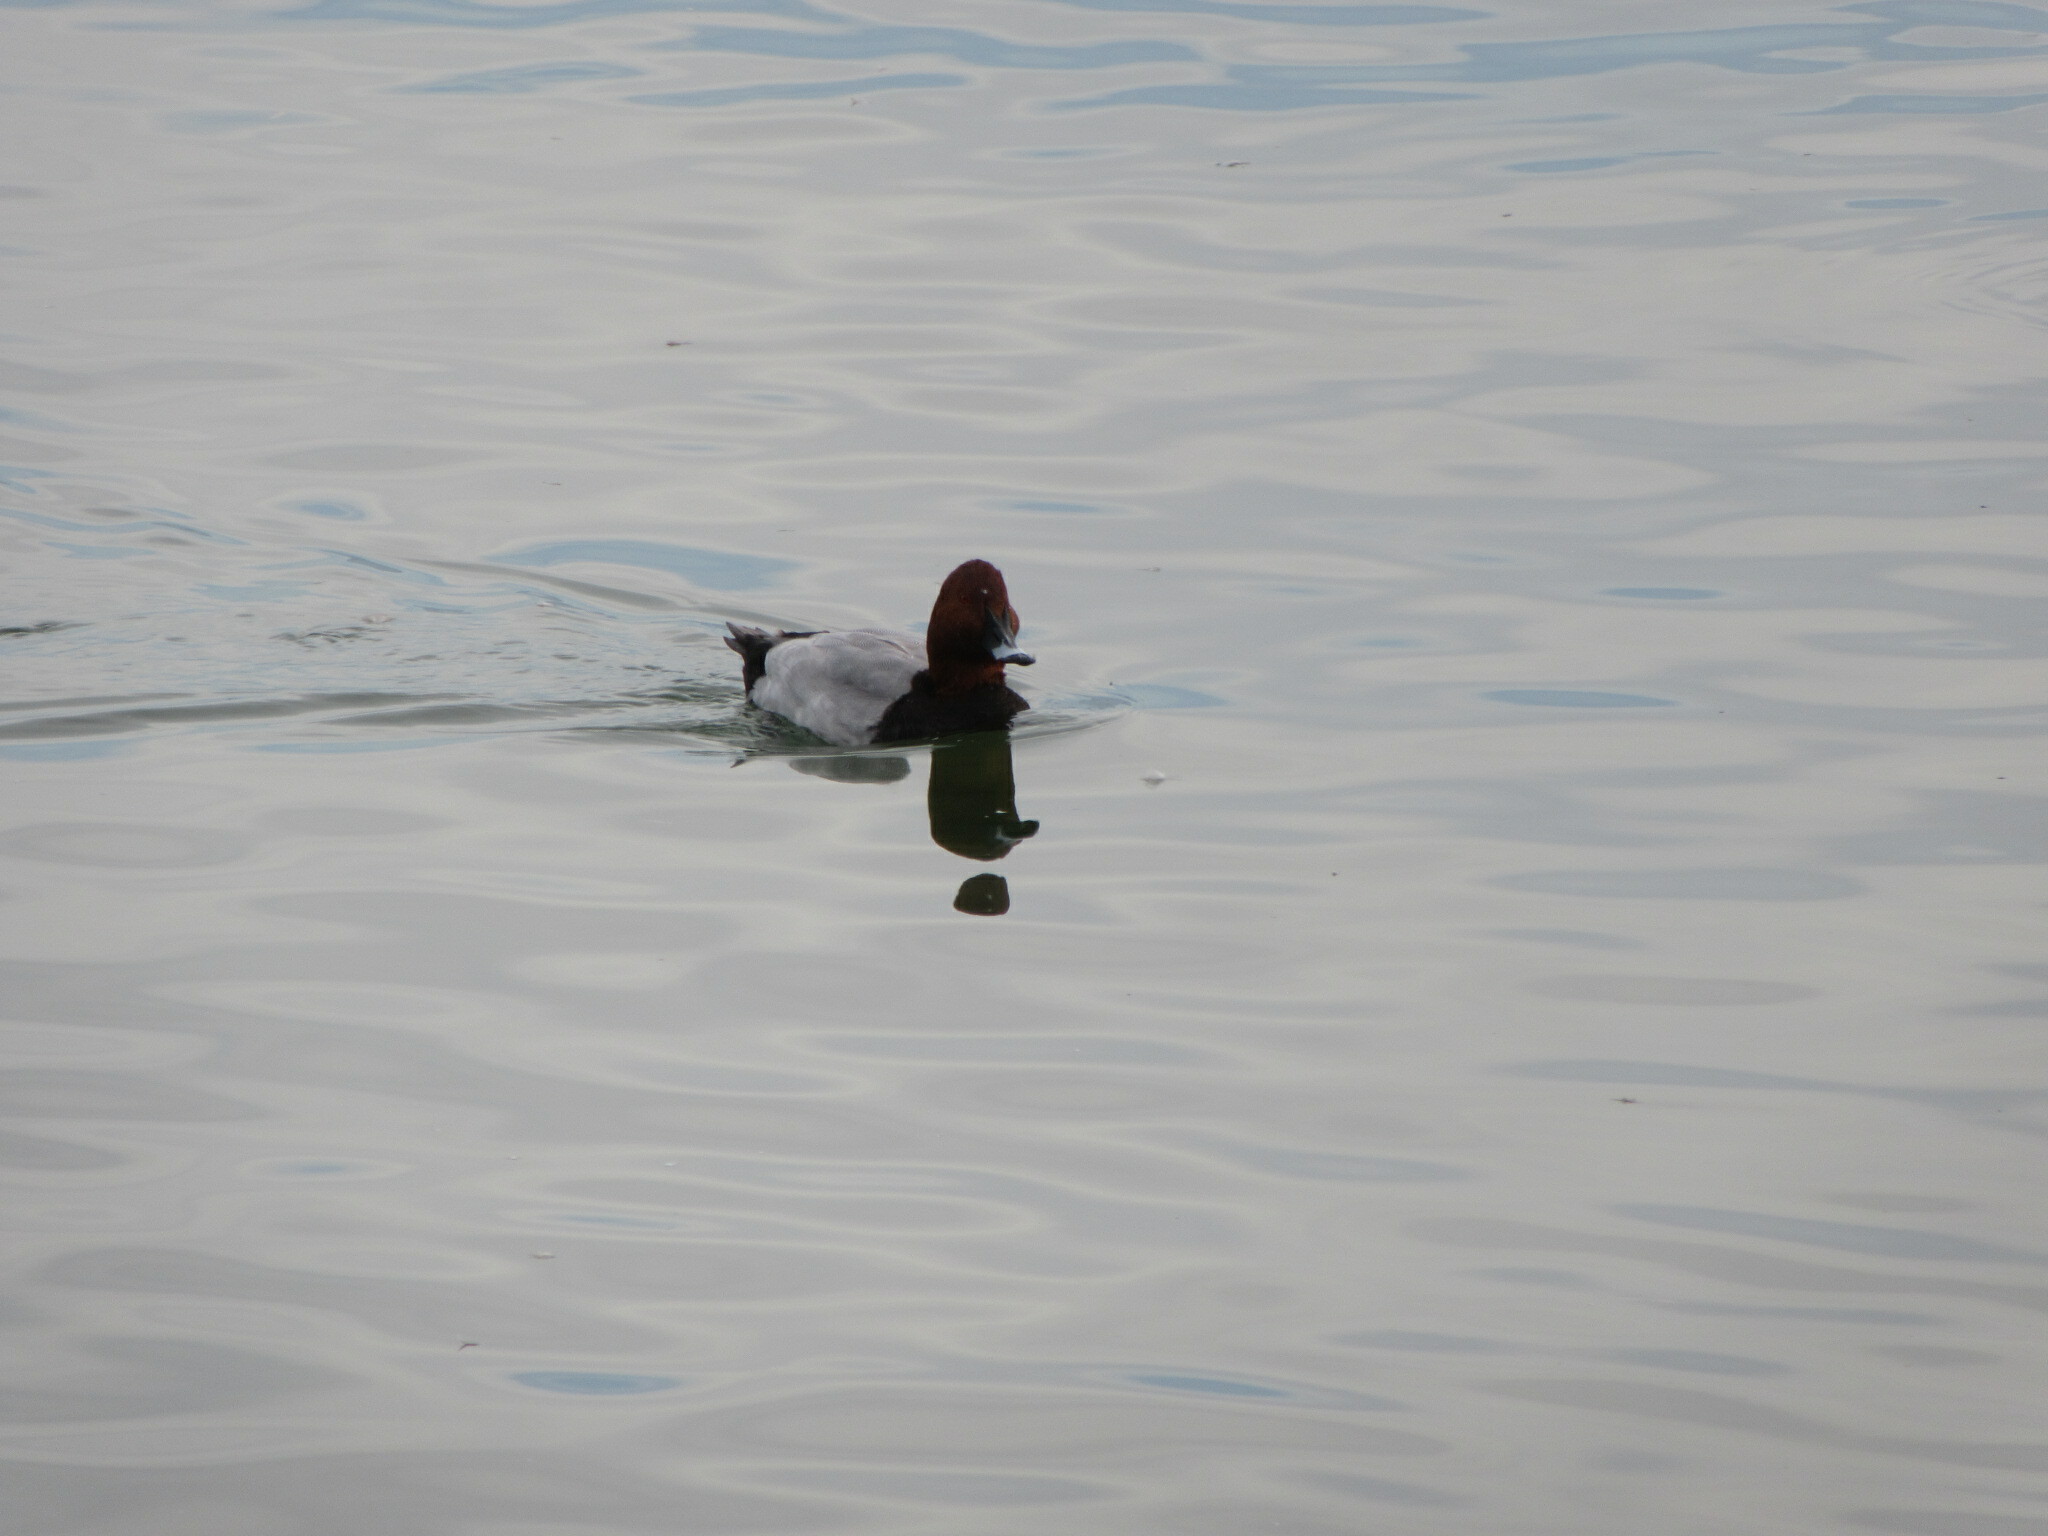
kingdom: Animalia
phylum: Chordata
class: Aves
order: Anseriformes
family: Anatidae
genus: Aythya
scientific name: Aythya ferina
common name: Common pochard
